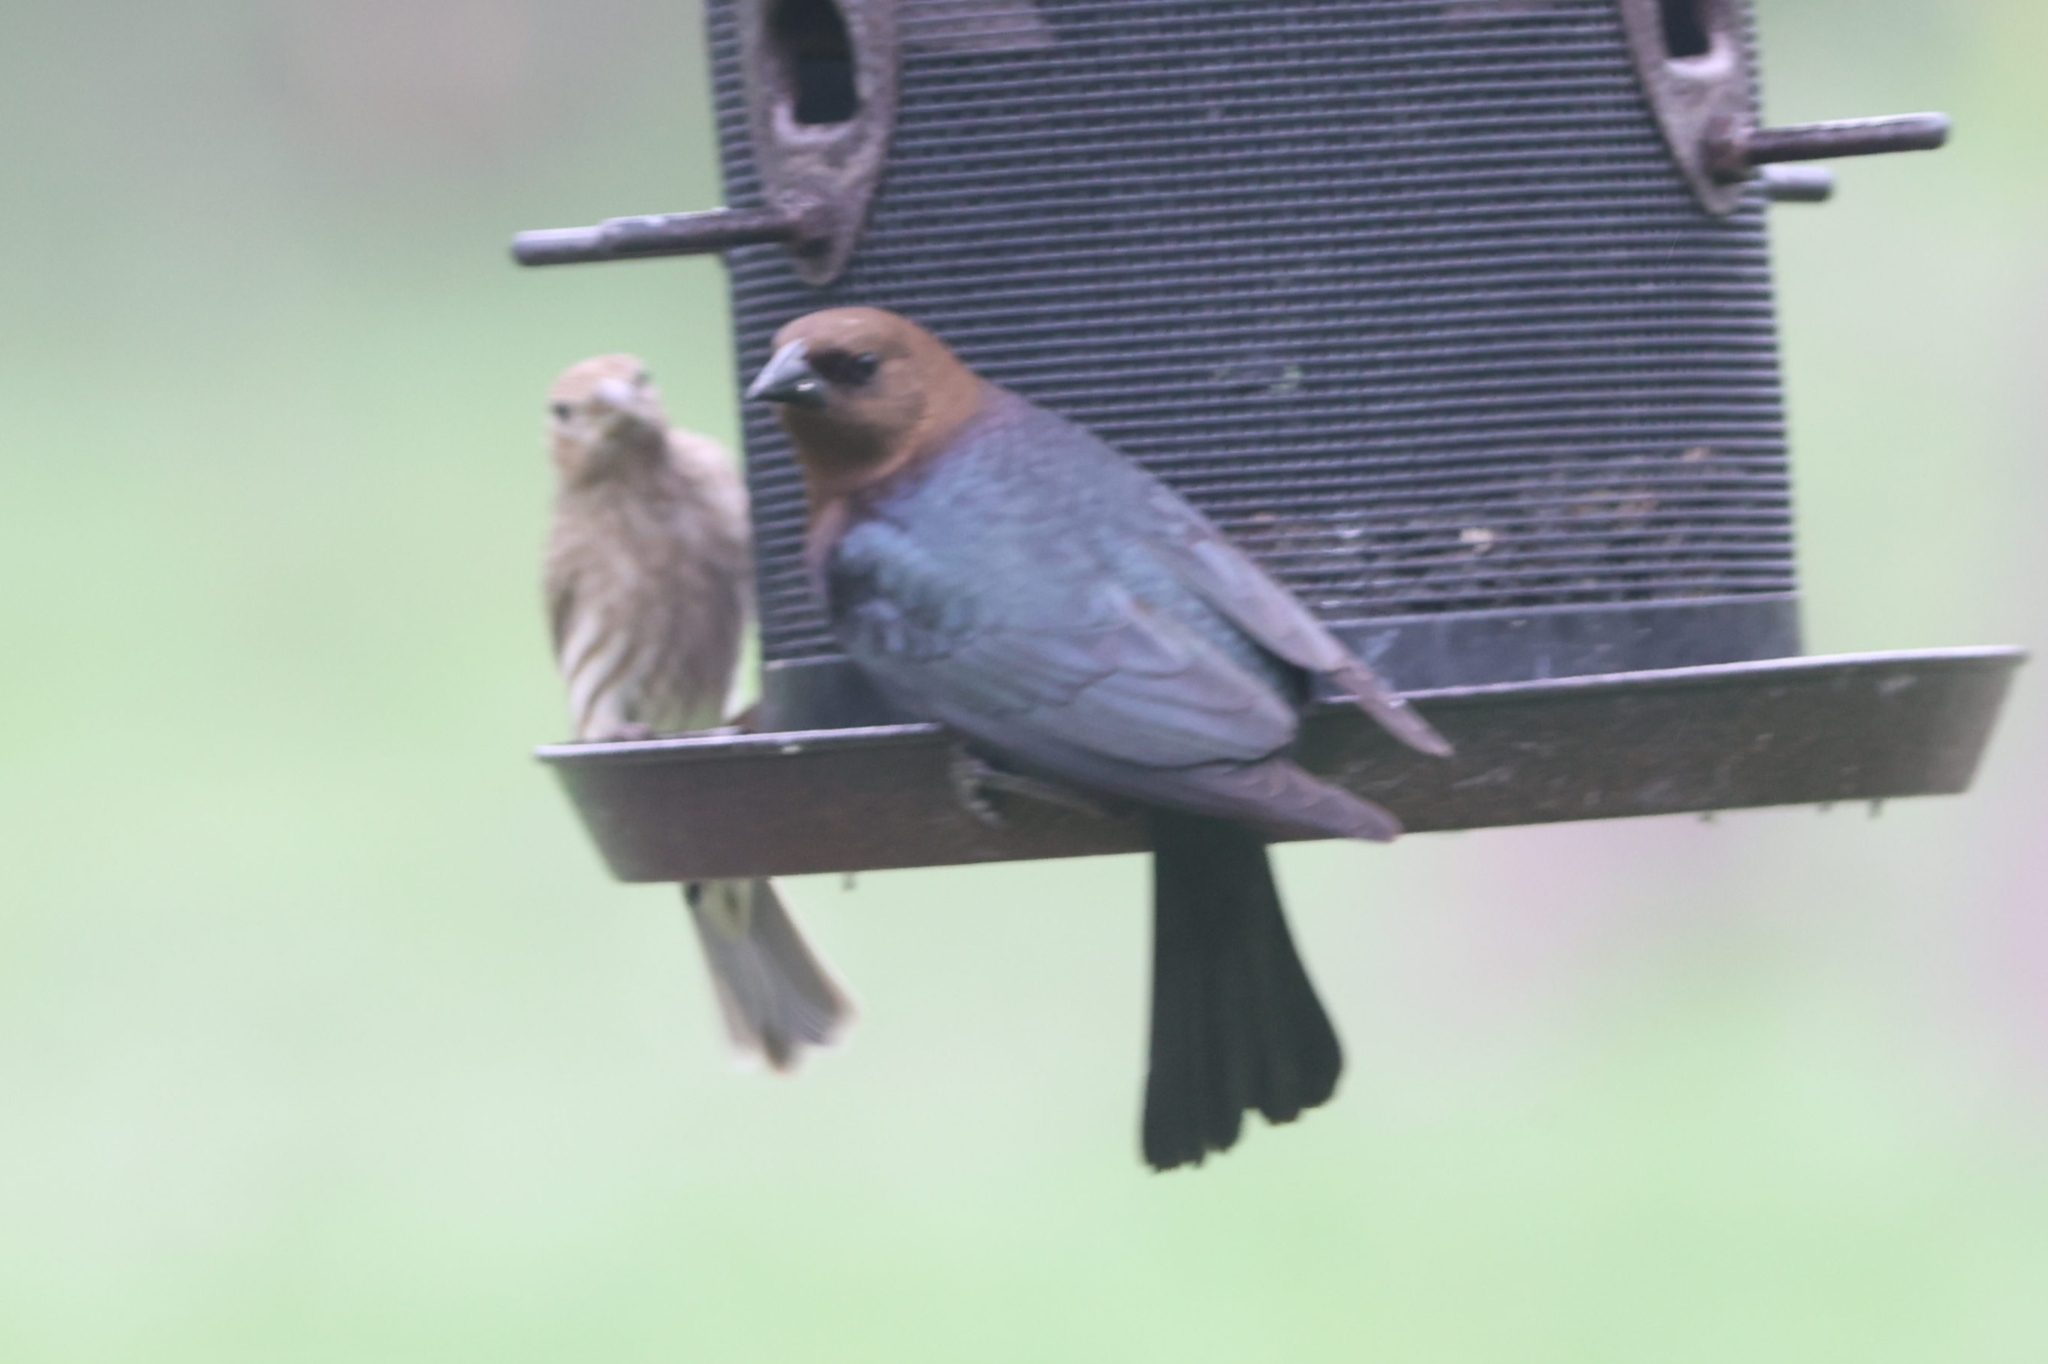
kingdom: Animalia
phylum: Chordata
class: Aves
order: Passeriformes
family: Icteridae
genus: Molothrus
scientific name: Molothrus ater
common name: Brown-headed cowbird
